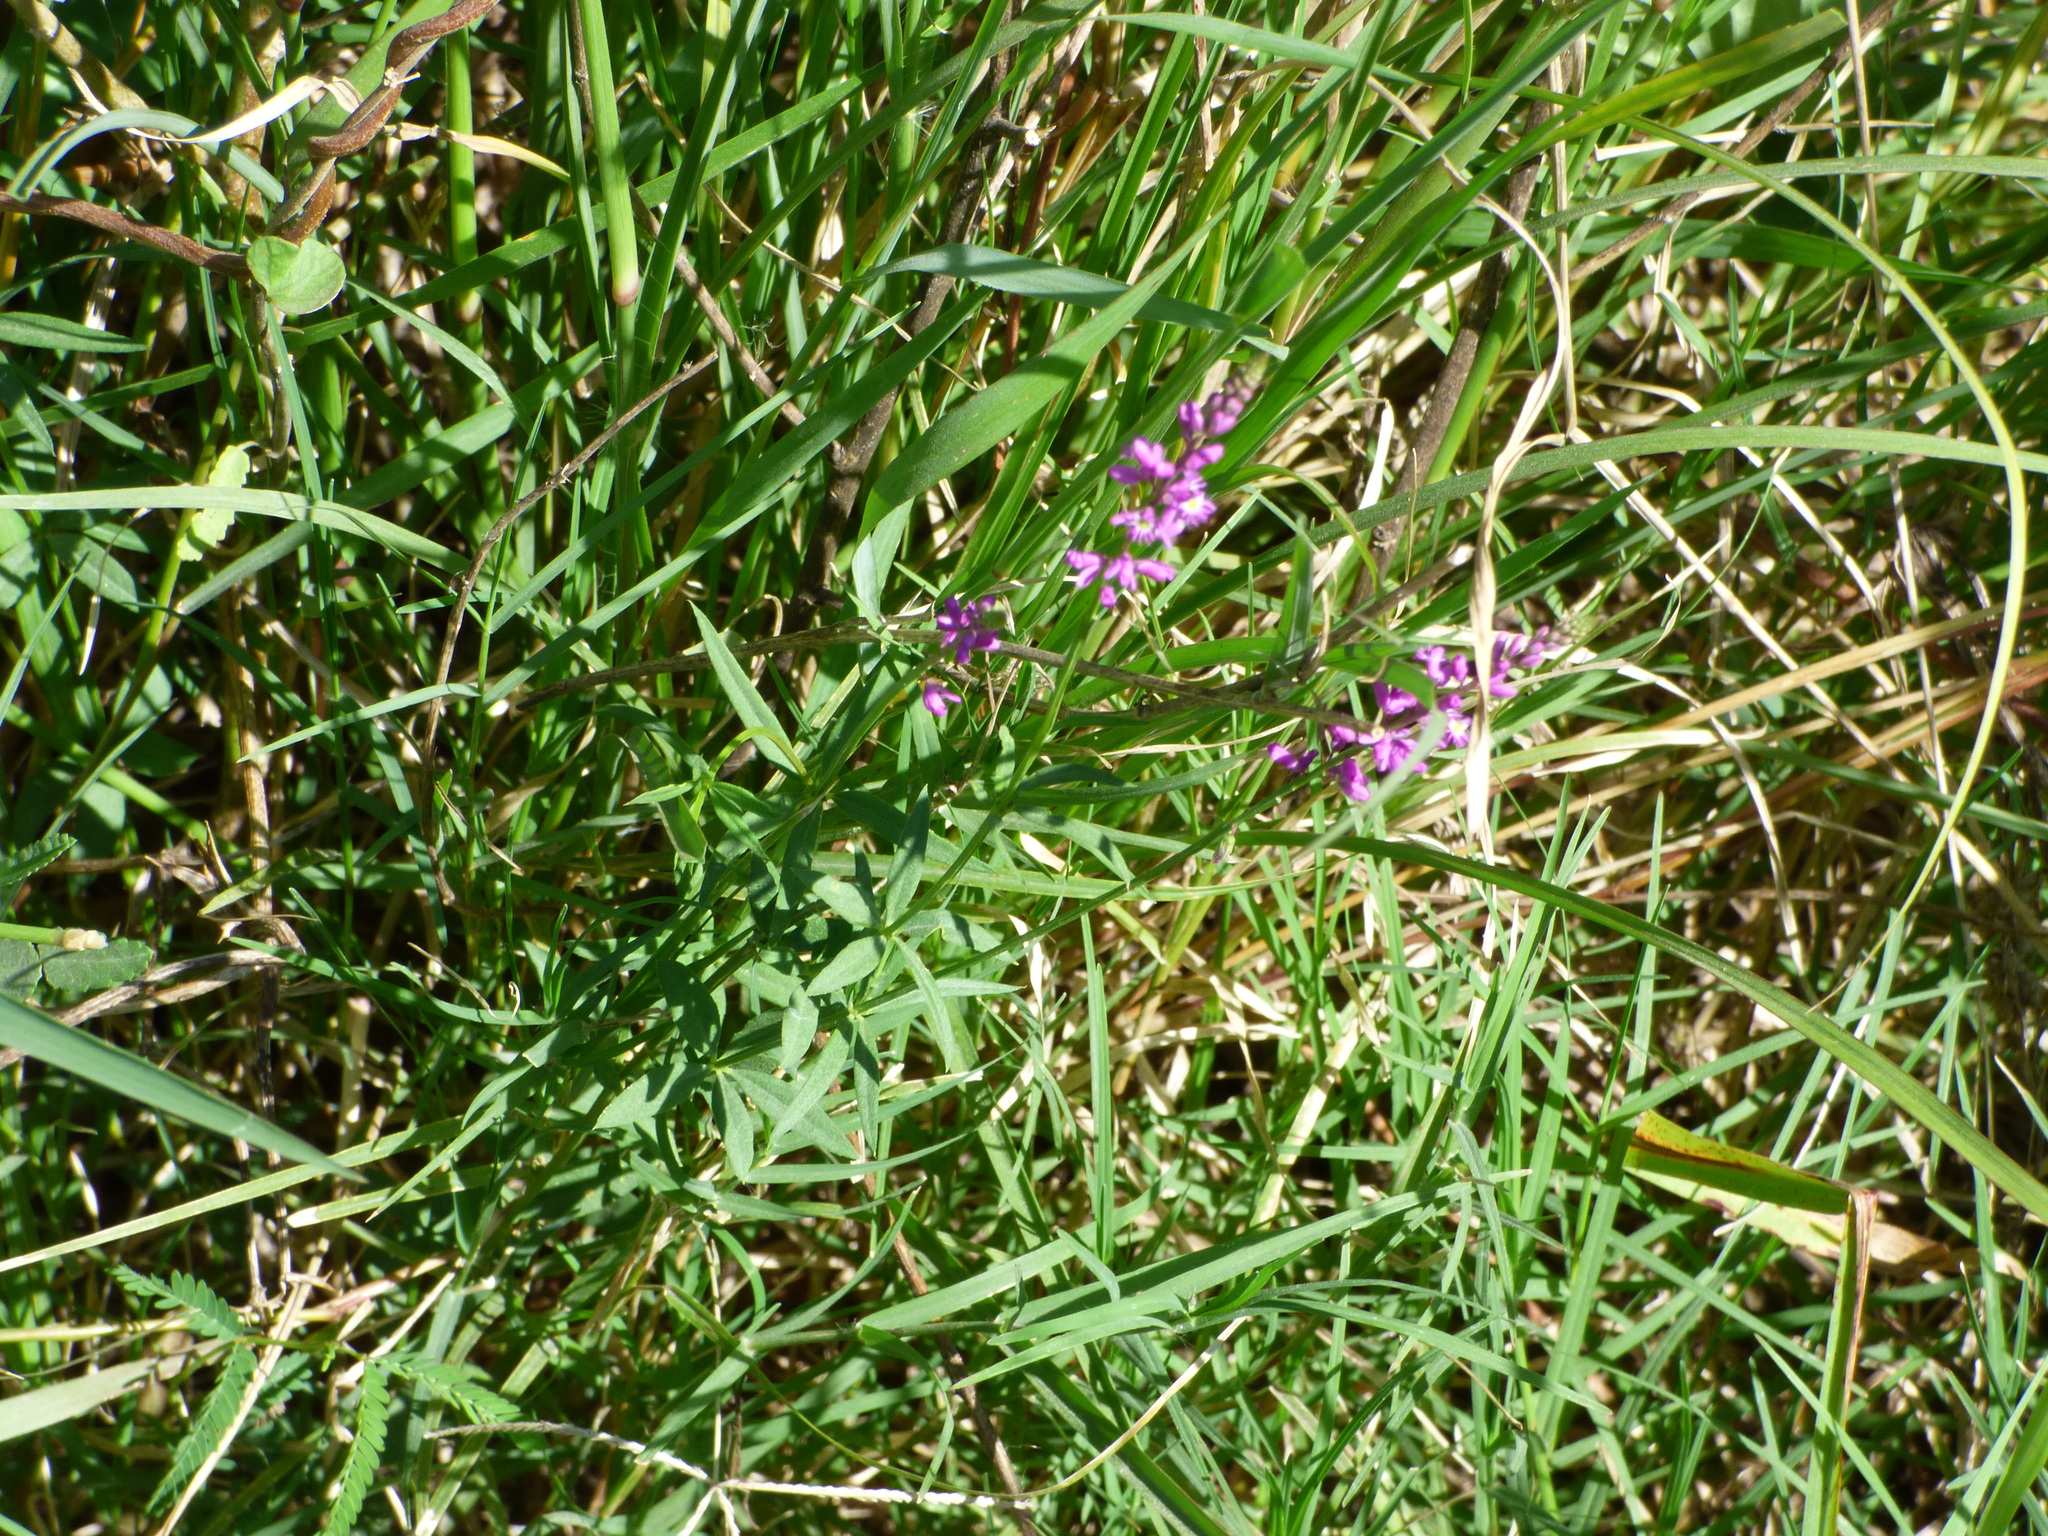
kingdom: Plantae
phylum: Tracheophyta
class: Magnoliopsida
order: Fabales
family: Polygalaceae
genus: Polygala
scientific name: Polygala molluginifolia
